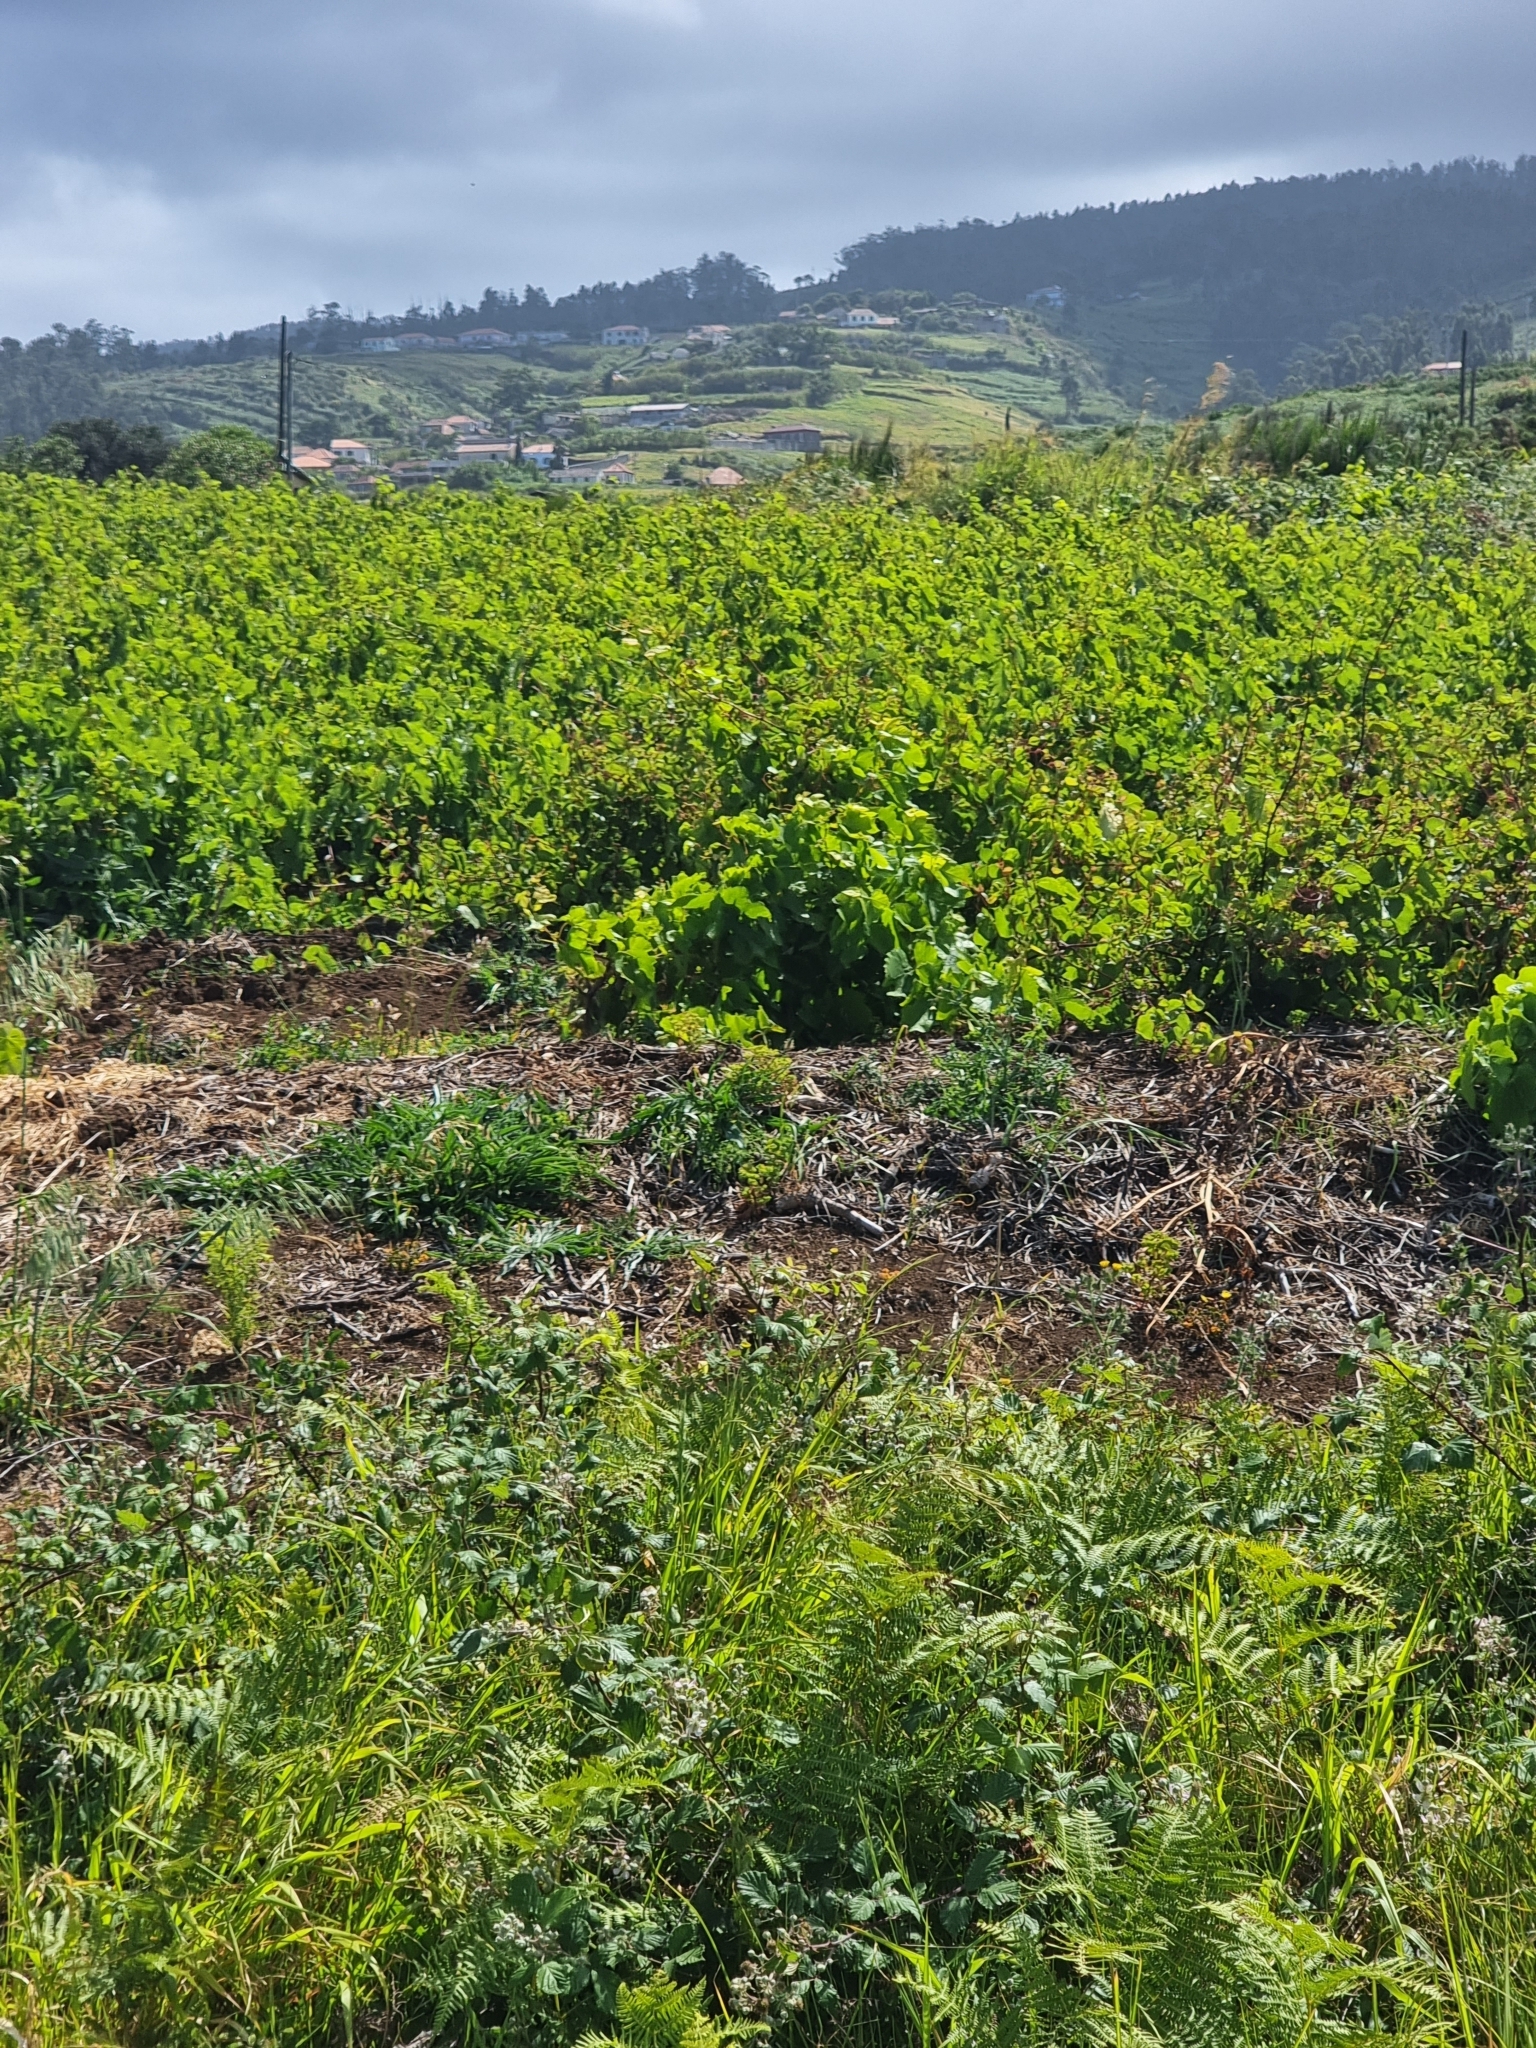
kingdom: Plantae
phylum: Tracheophyta
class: Magnoliopsida
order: Vitales
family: Vitaceae
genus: Vitis
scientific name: Vitis vinifera
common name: Grape-vine
